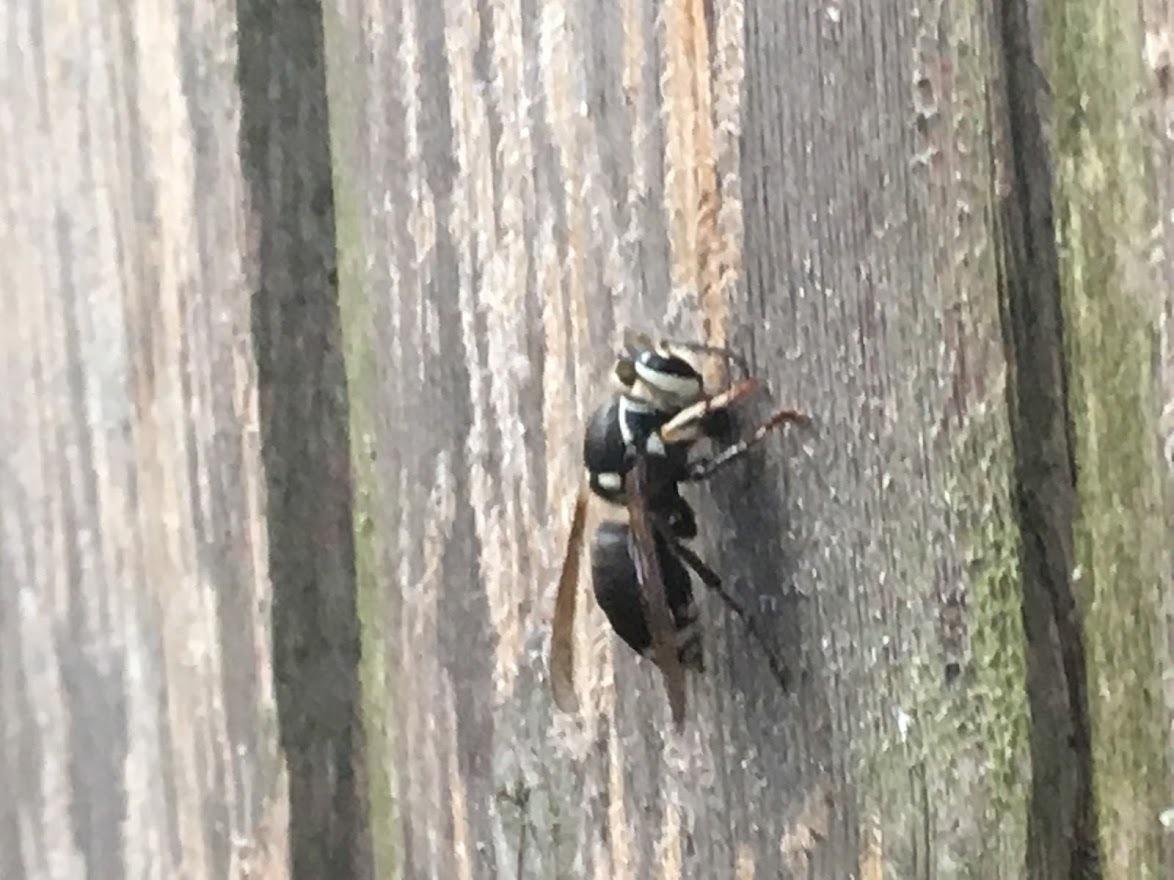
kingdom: Animalia
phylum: Arthropoda
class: Insecta
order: Hymenoptera
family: Vespidae
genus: Dolichovespula
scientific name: Dolichovespula maculata
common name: Bald-faced hornet
